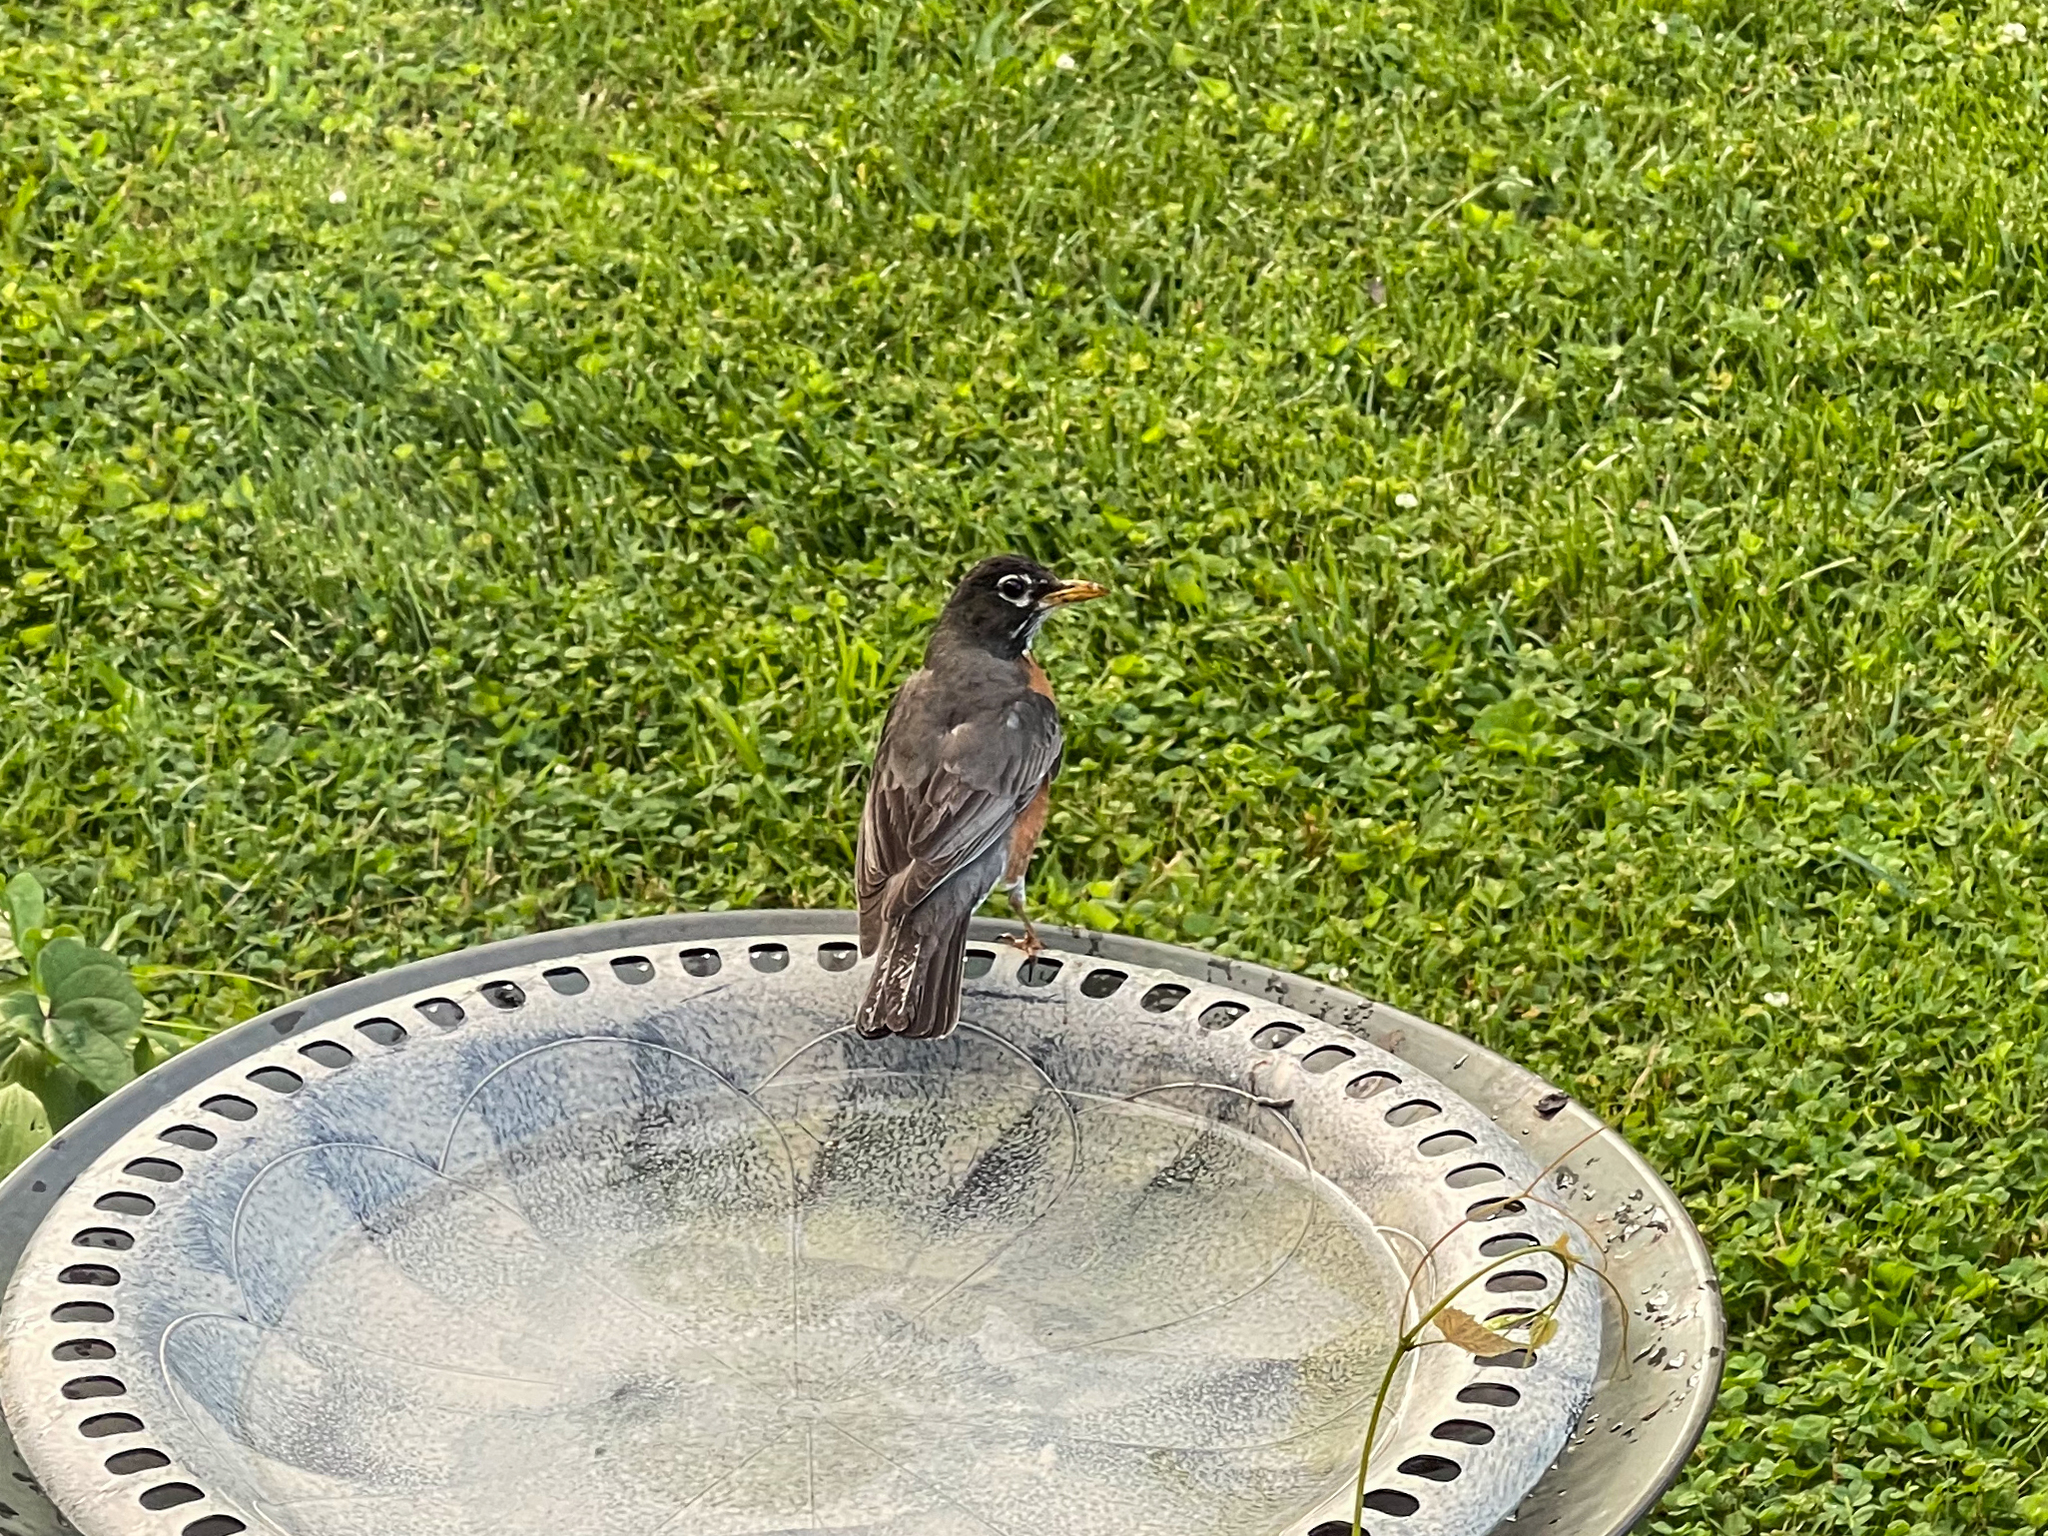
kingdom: Animalia
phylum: Chordata
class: Aves
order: Passeriformes
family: Turdidae
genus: Turdus
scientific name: Turdus migratorius
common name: American robin
